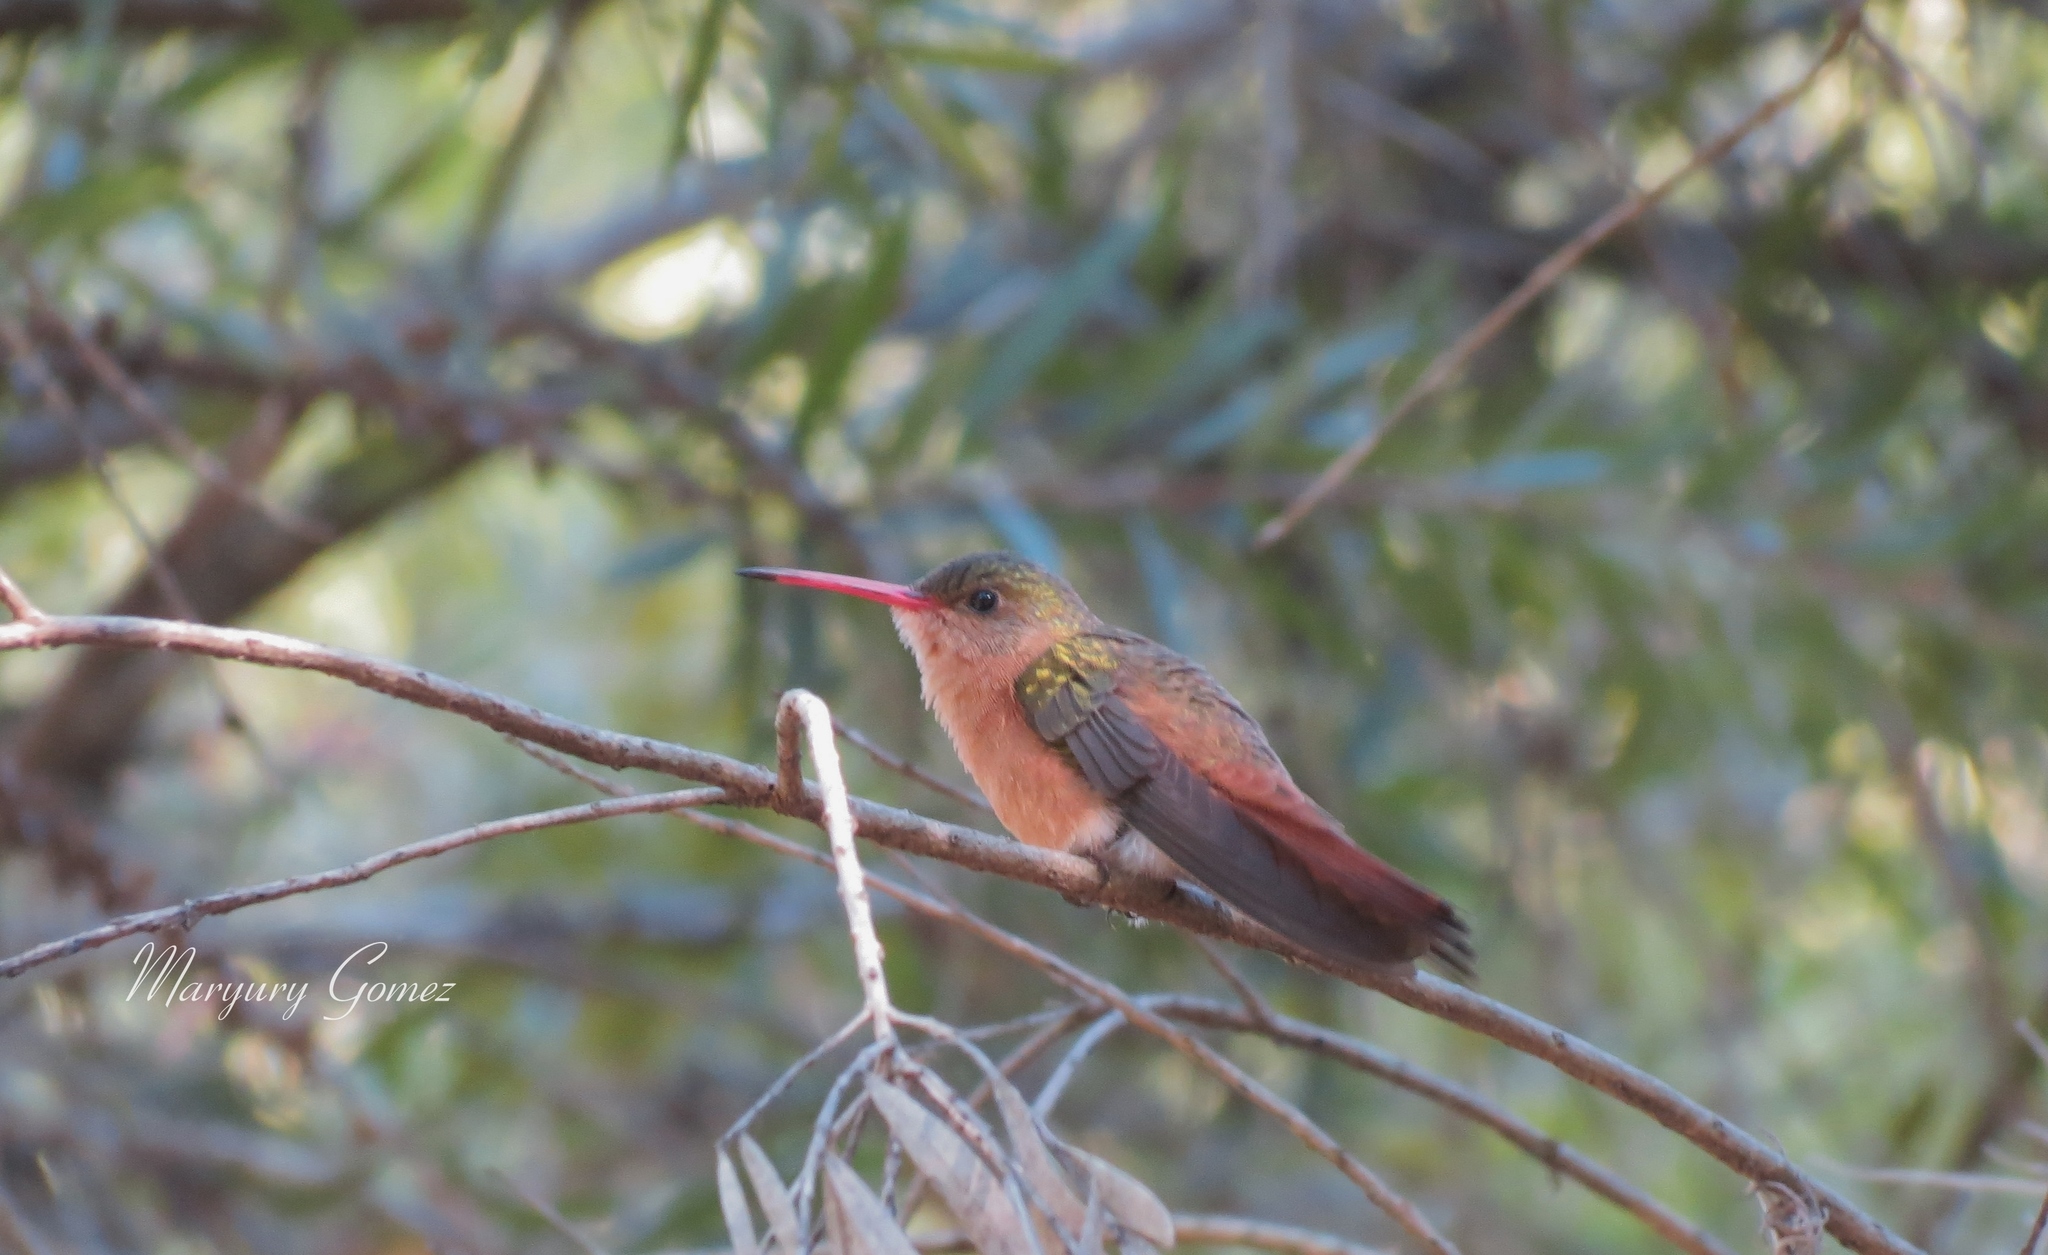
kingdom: Animalia
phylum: Chordata
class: Aves
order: Apodiformes
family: Trochilidae
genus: Amazilia
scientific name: Amazilia rutila
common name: Cinnamon hummingbird
